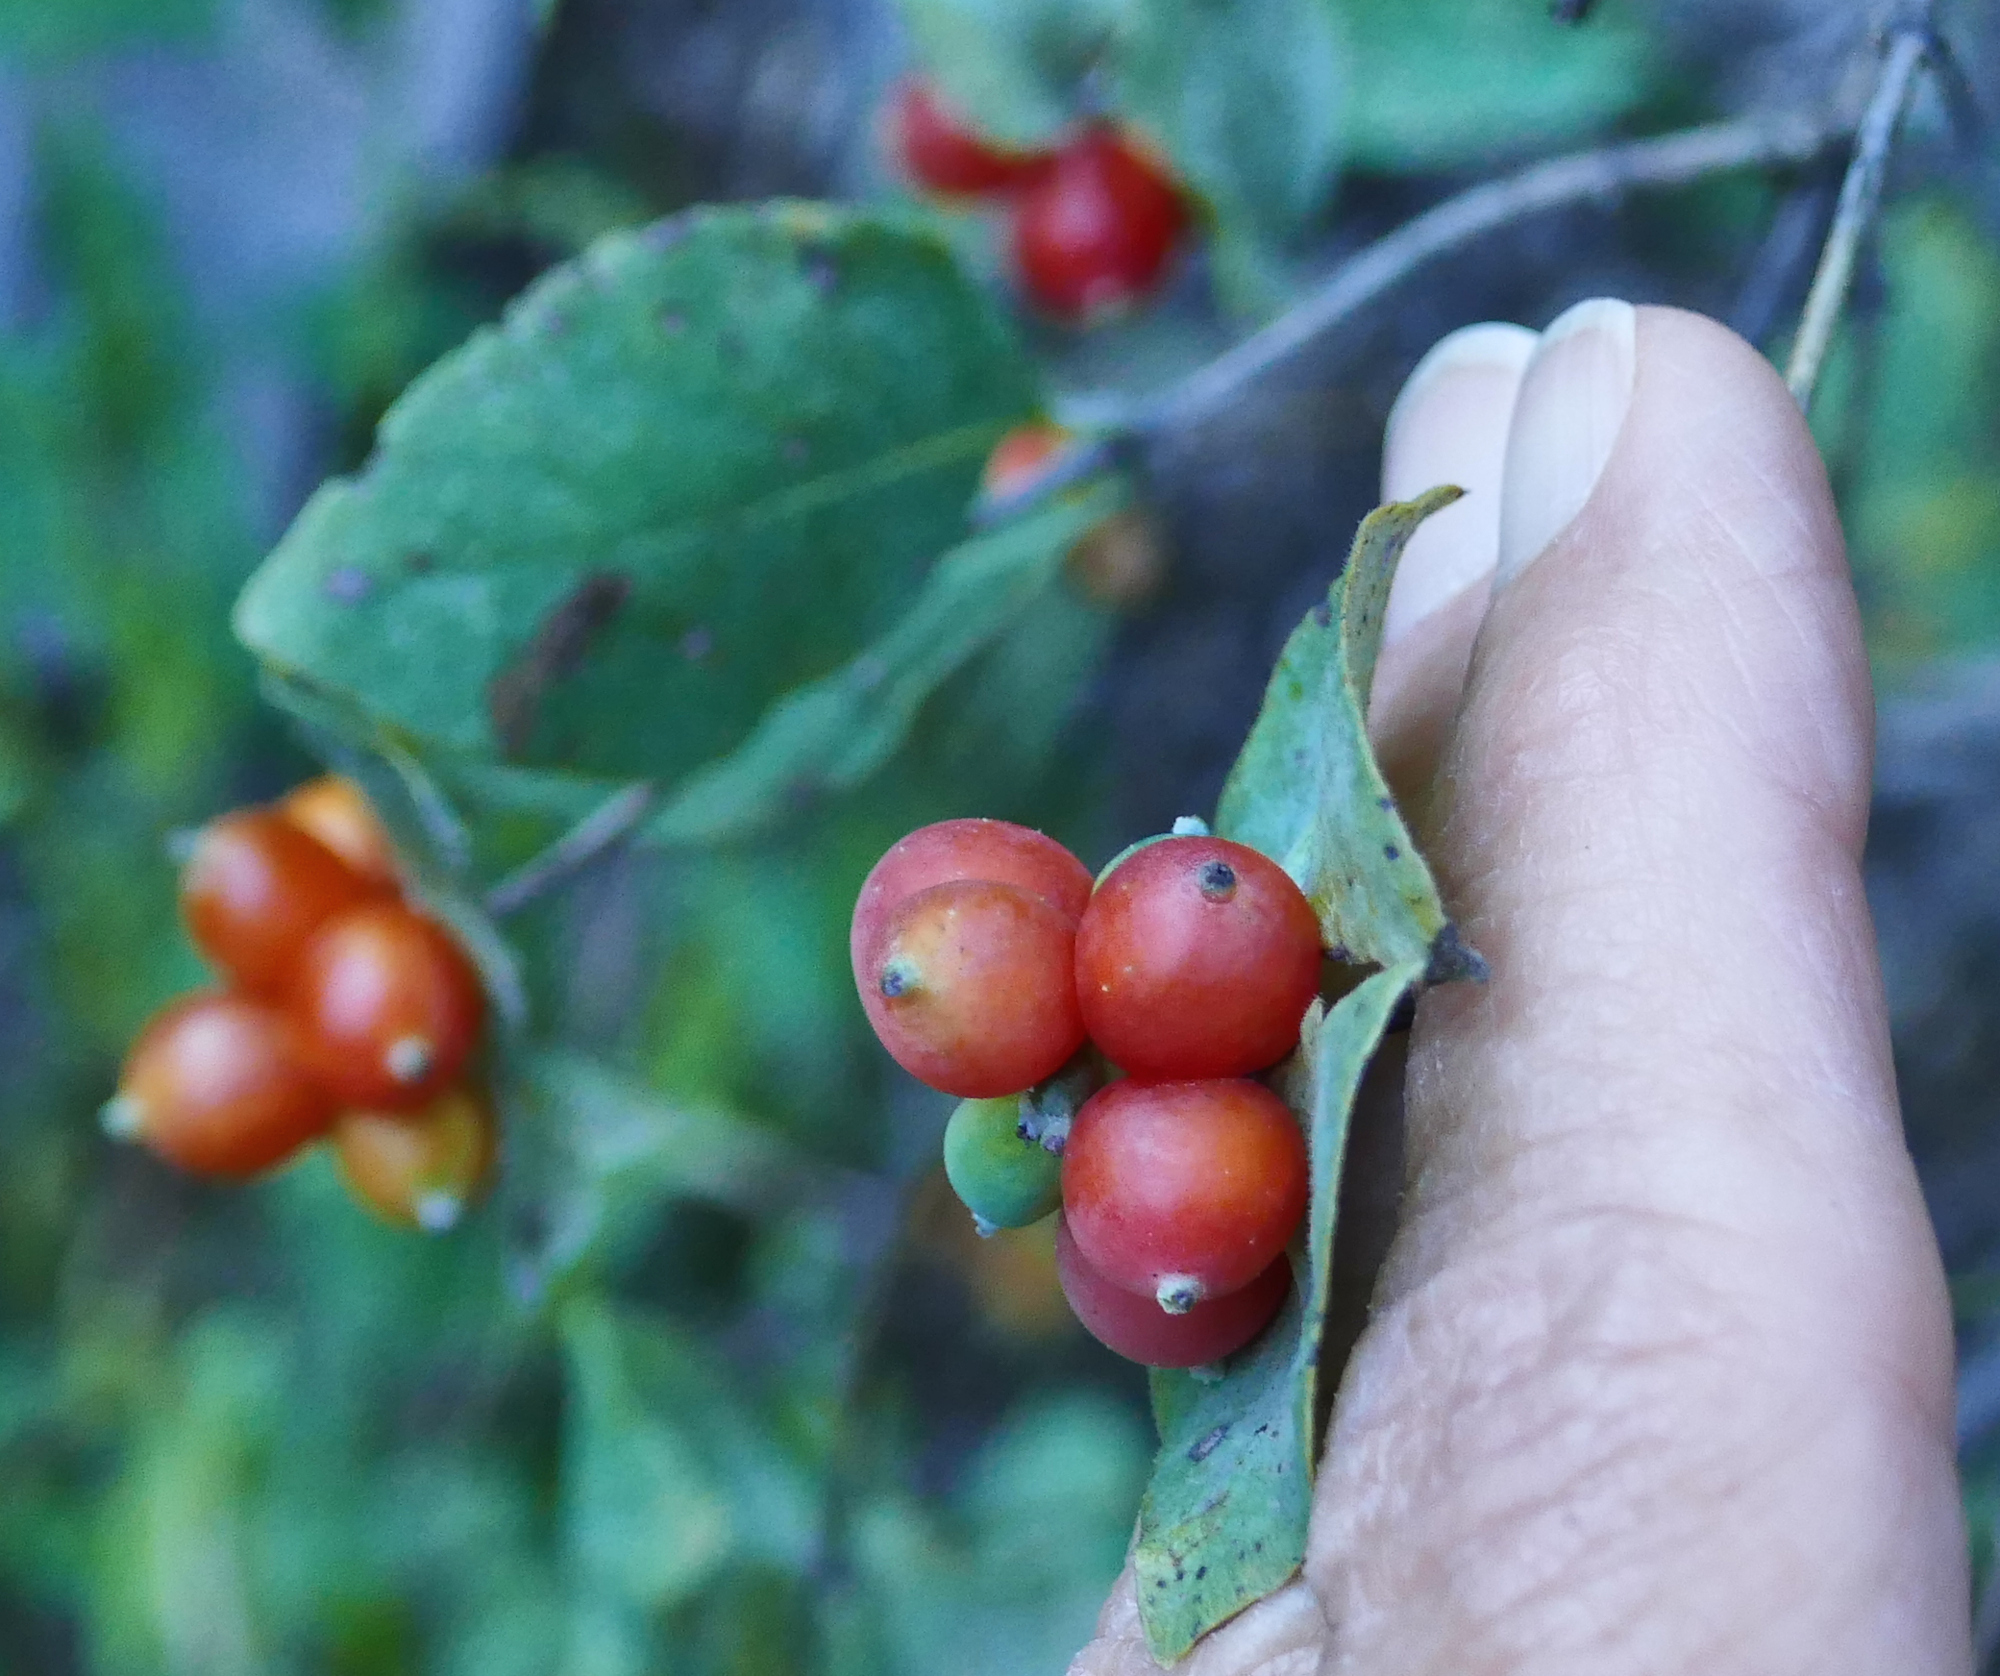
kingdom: Plantae
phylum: Tracheophyta
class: Magnoliopsida
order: Dipsacales
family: Caprifoliaceae
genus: Lonicera
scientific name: Lonicera albiflora
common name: White honeysuckle
